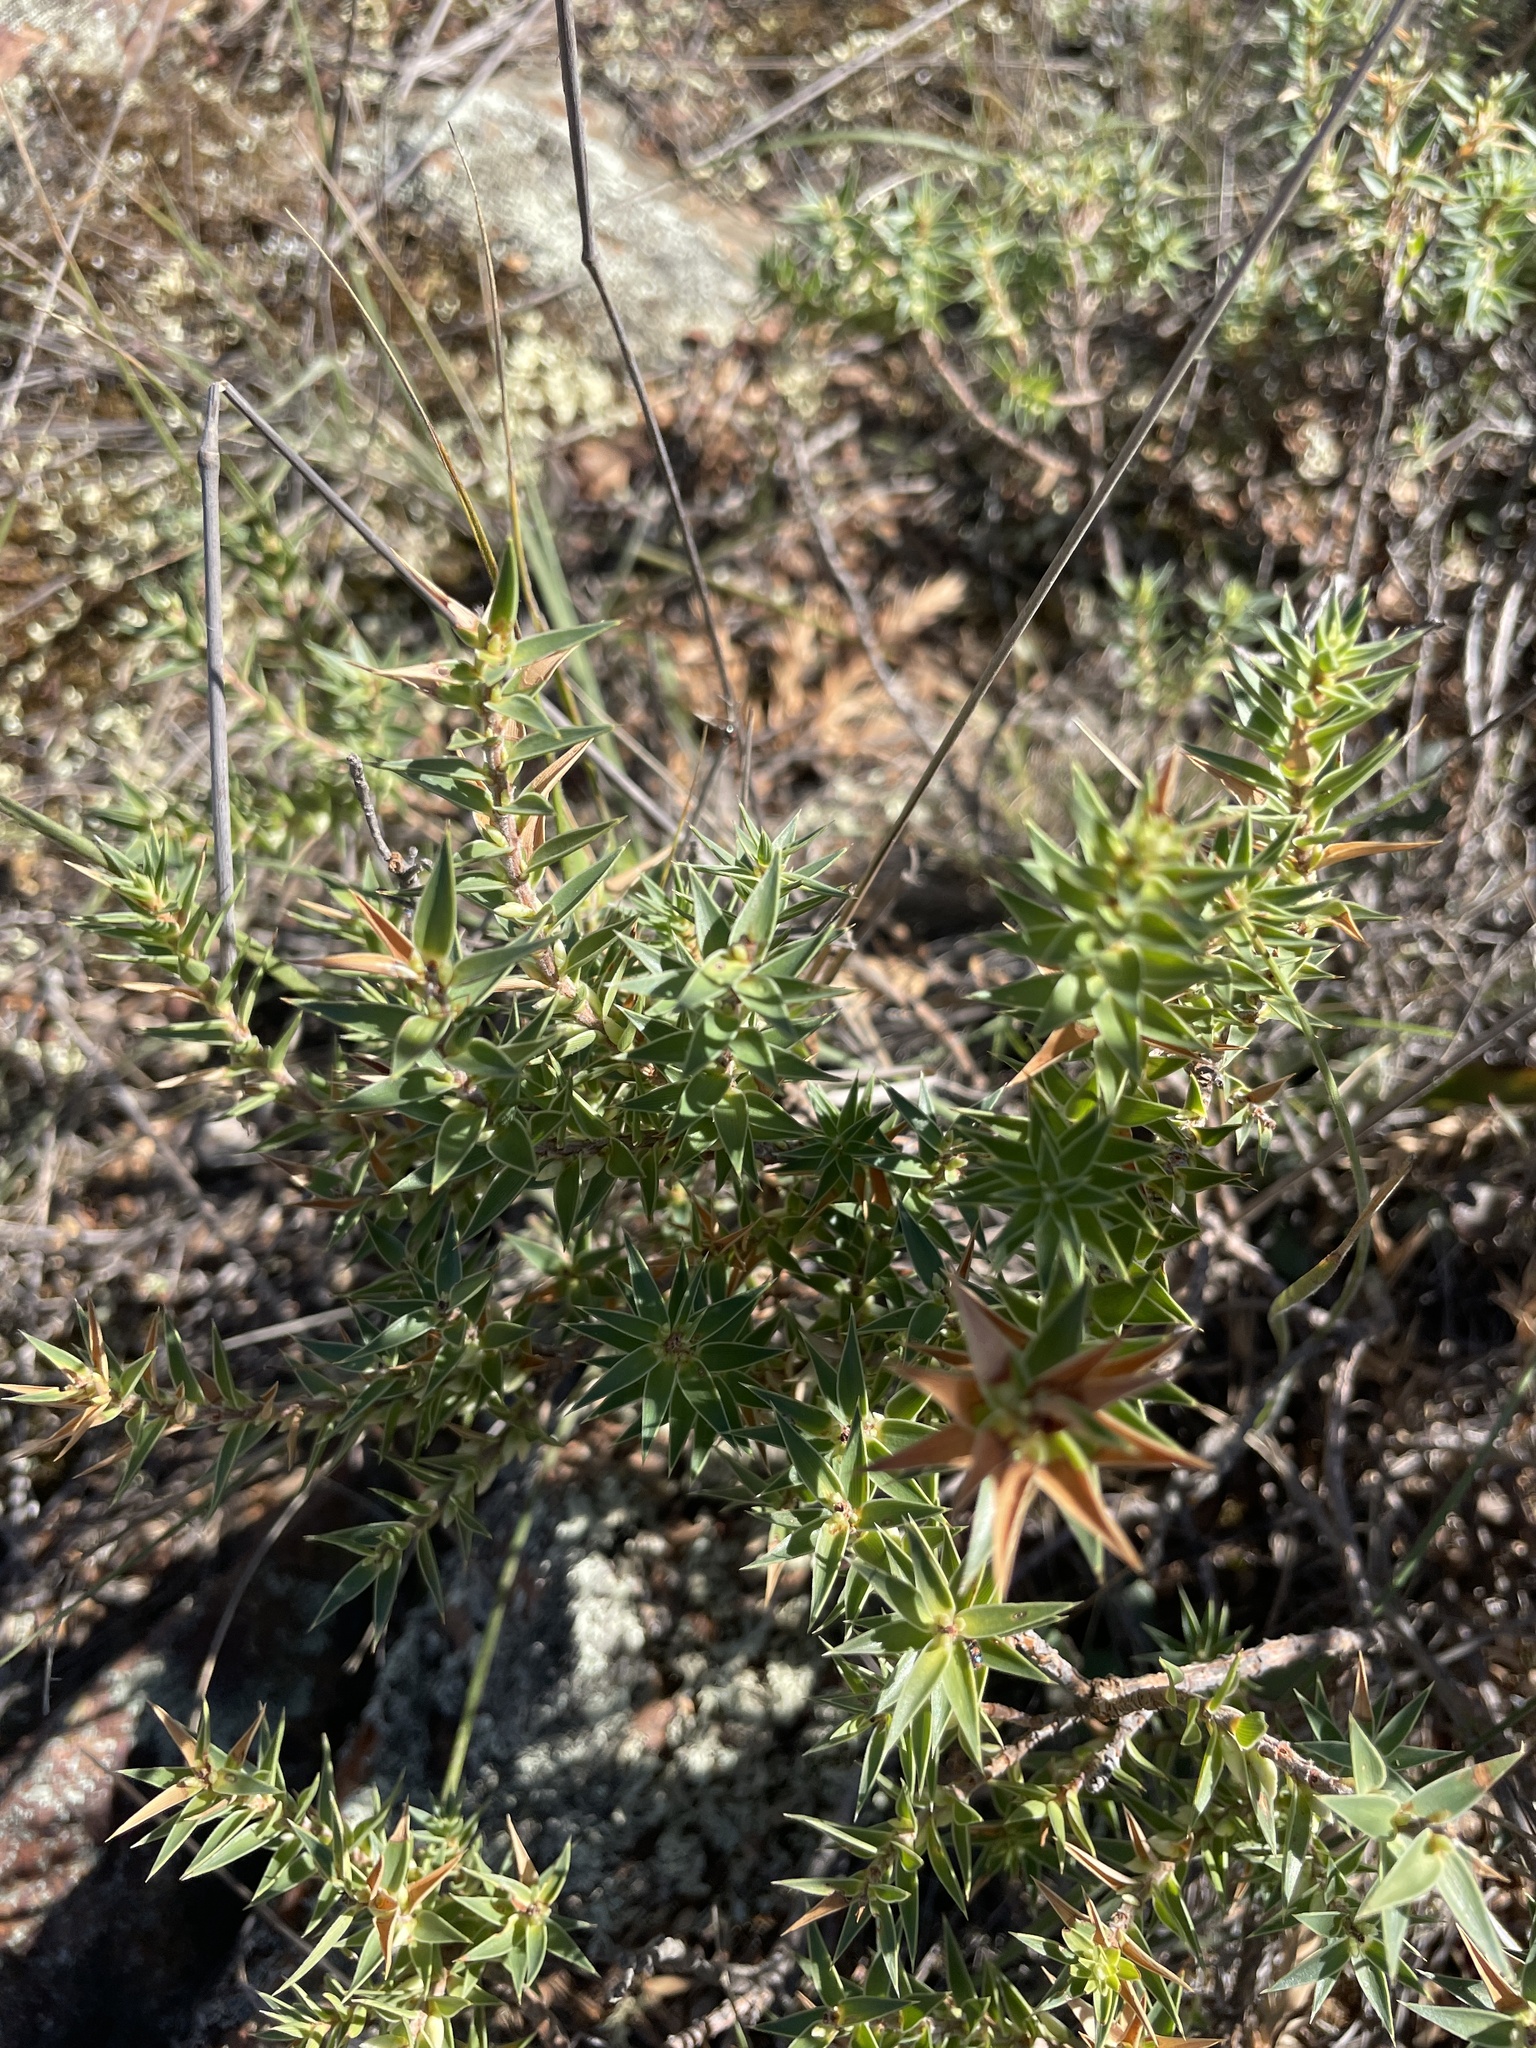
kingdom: Plantae
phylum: Tracheophyta
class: Magnoliopsida
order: Ericales
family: Ericaceae
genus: Melichrus
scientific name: Melichrus urceolatus
